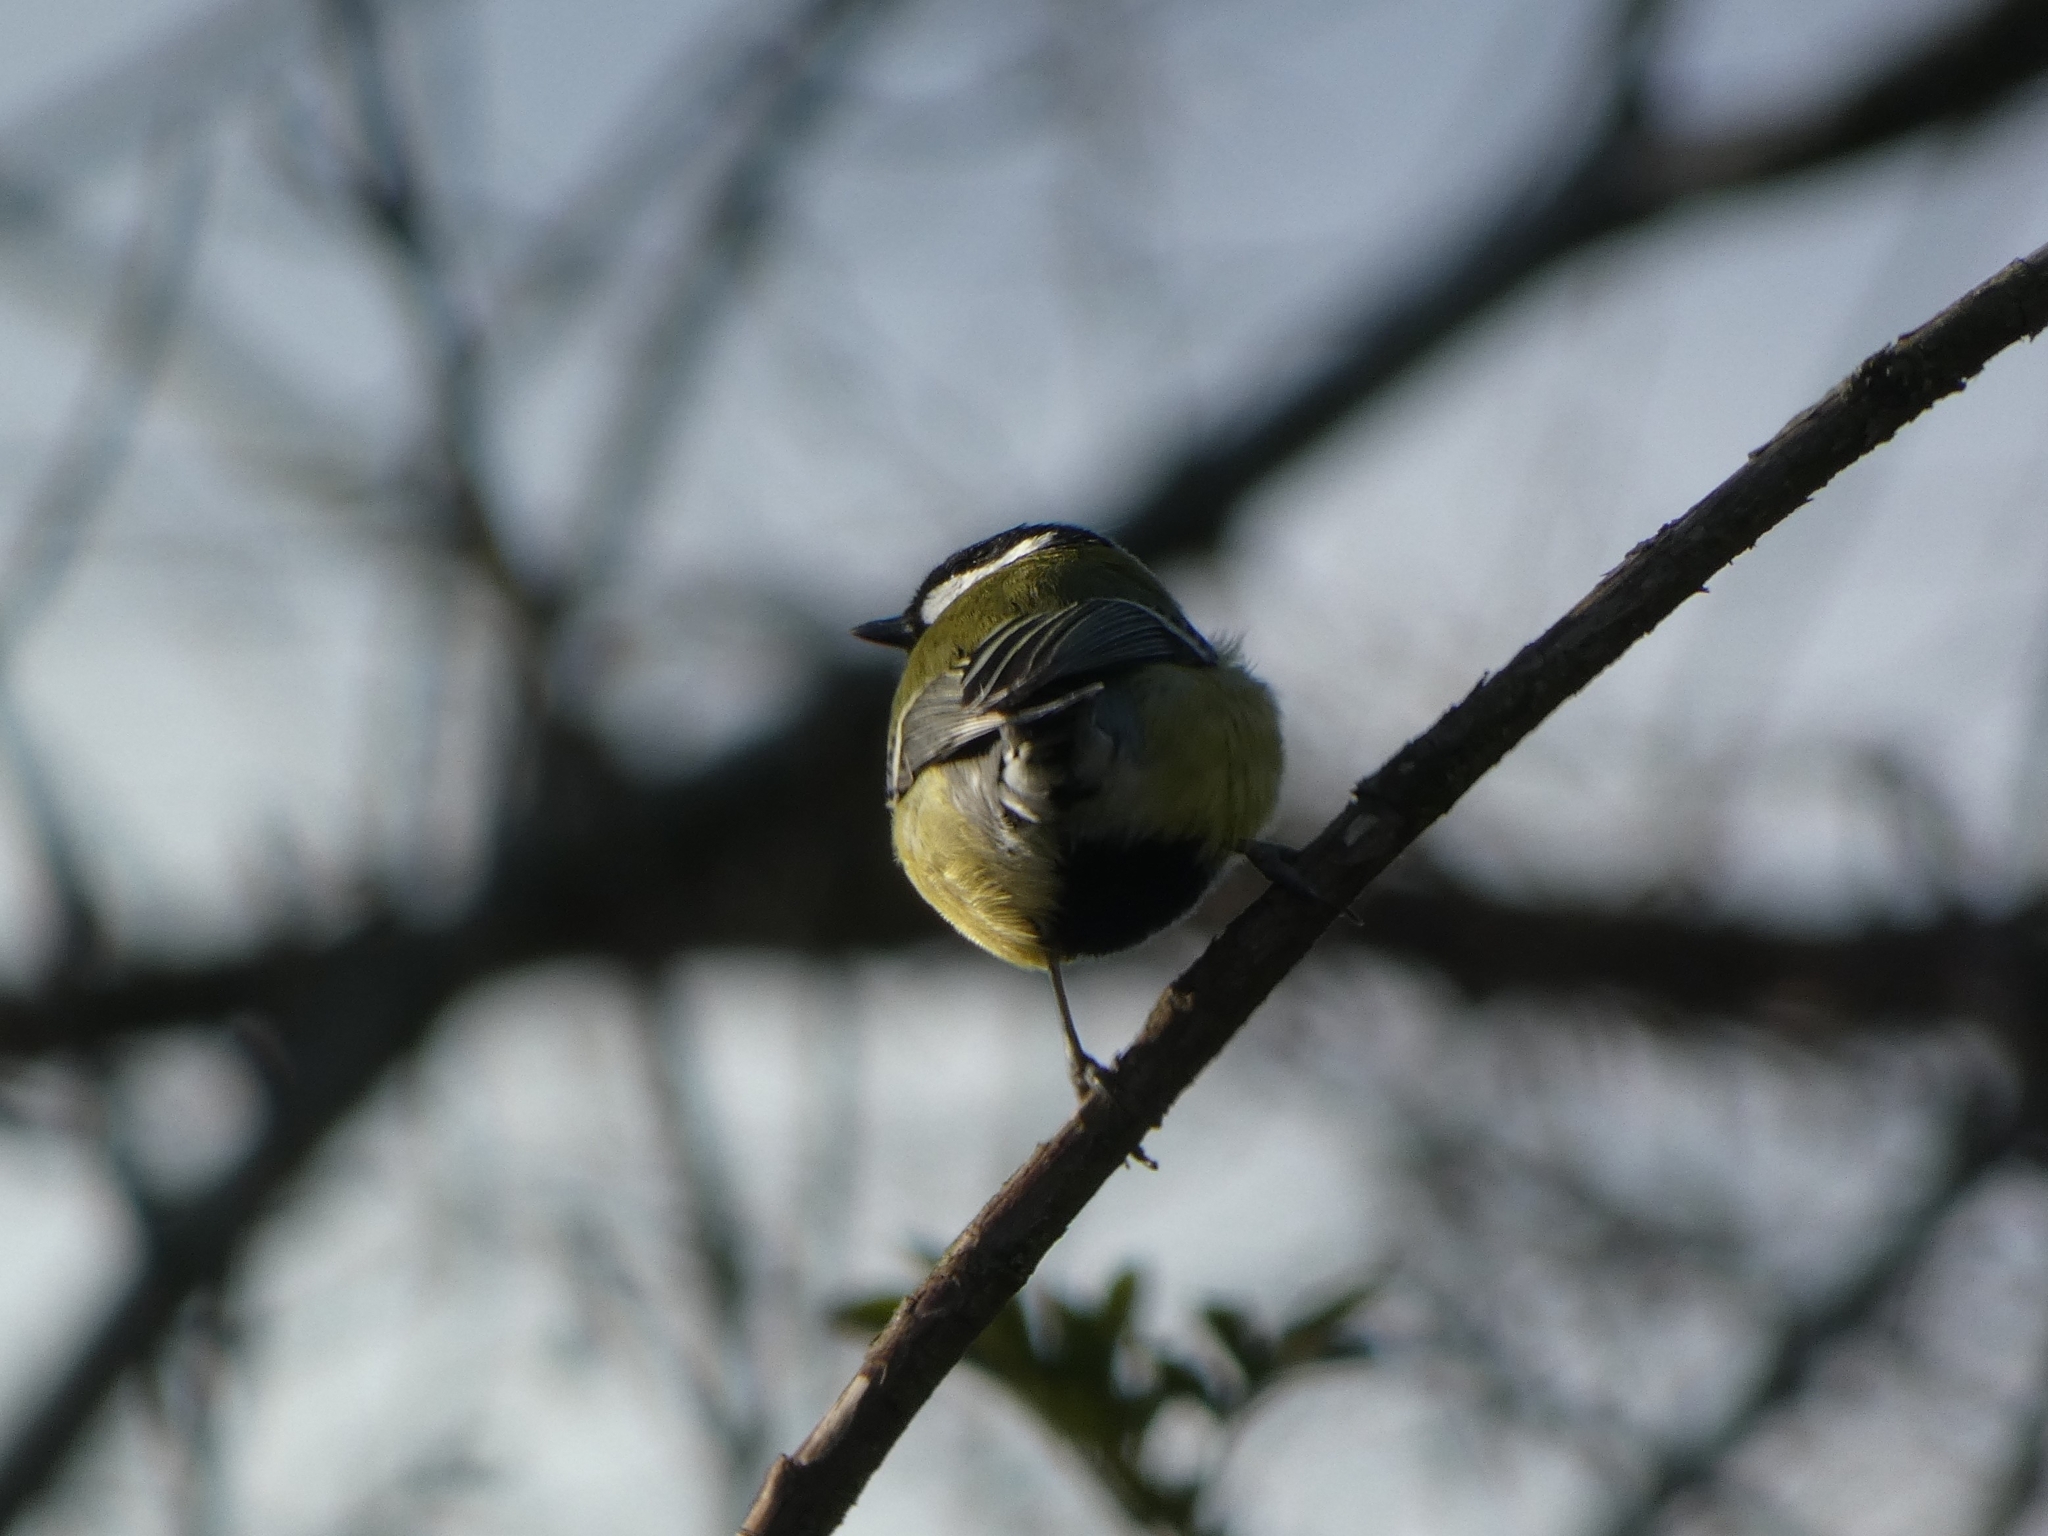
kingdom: Animalia
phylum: Chordata
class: Aves
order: Passeriformes
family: Paridae
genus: Parus
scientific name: Parus major
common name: Great tit
